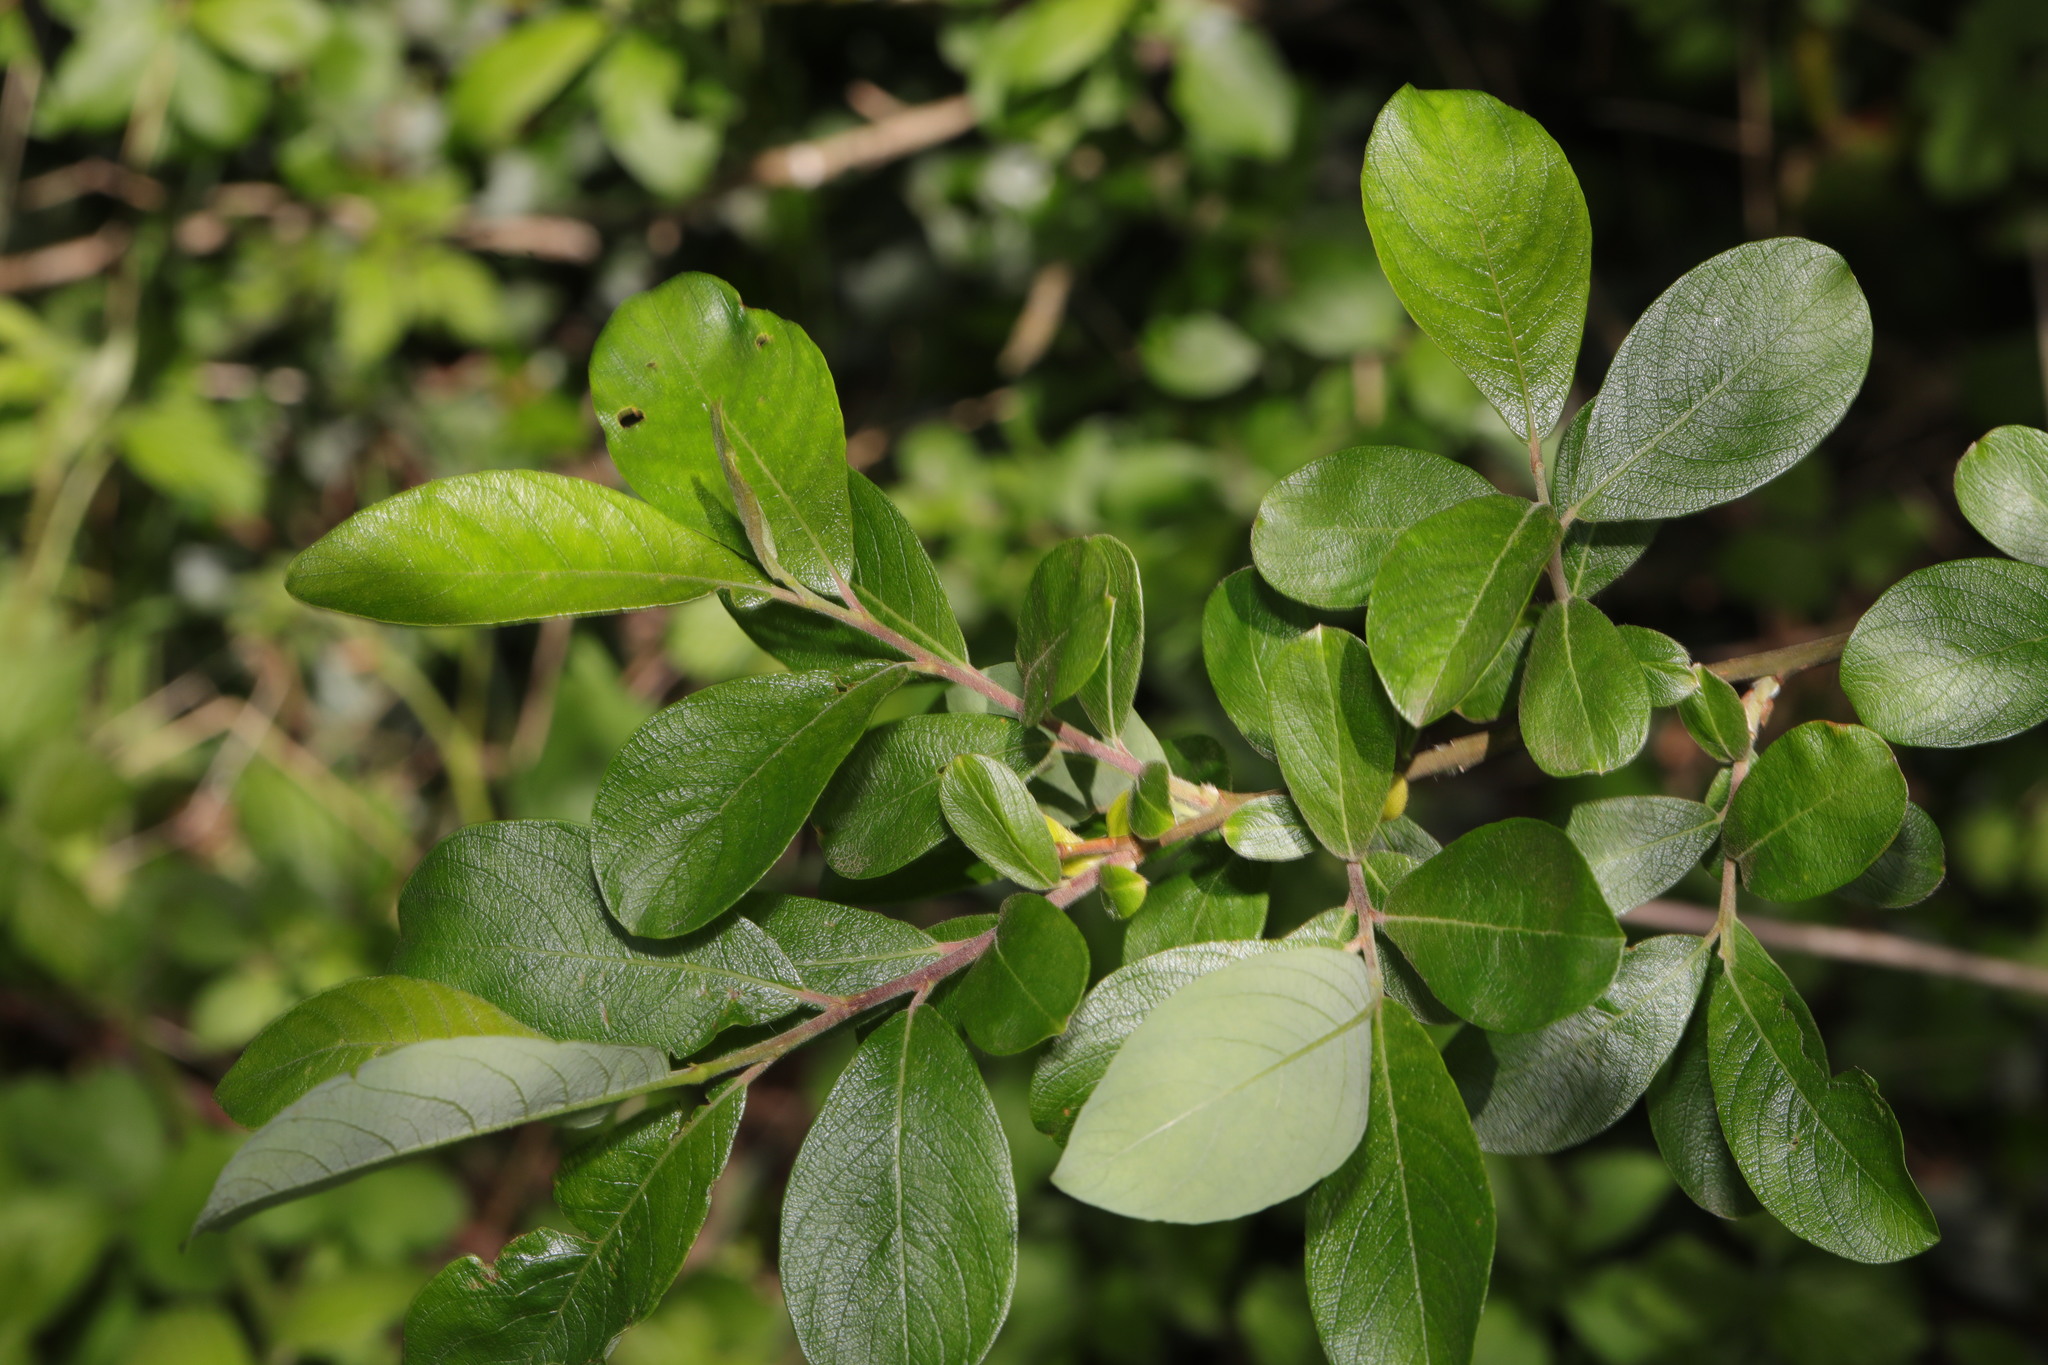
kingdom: Plantae
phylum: Tracheophyta
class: Magnoliopsida
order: Malpighiales
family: Salicaceae
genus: Salix
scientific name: Salix cinerea
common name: Common sallow
